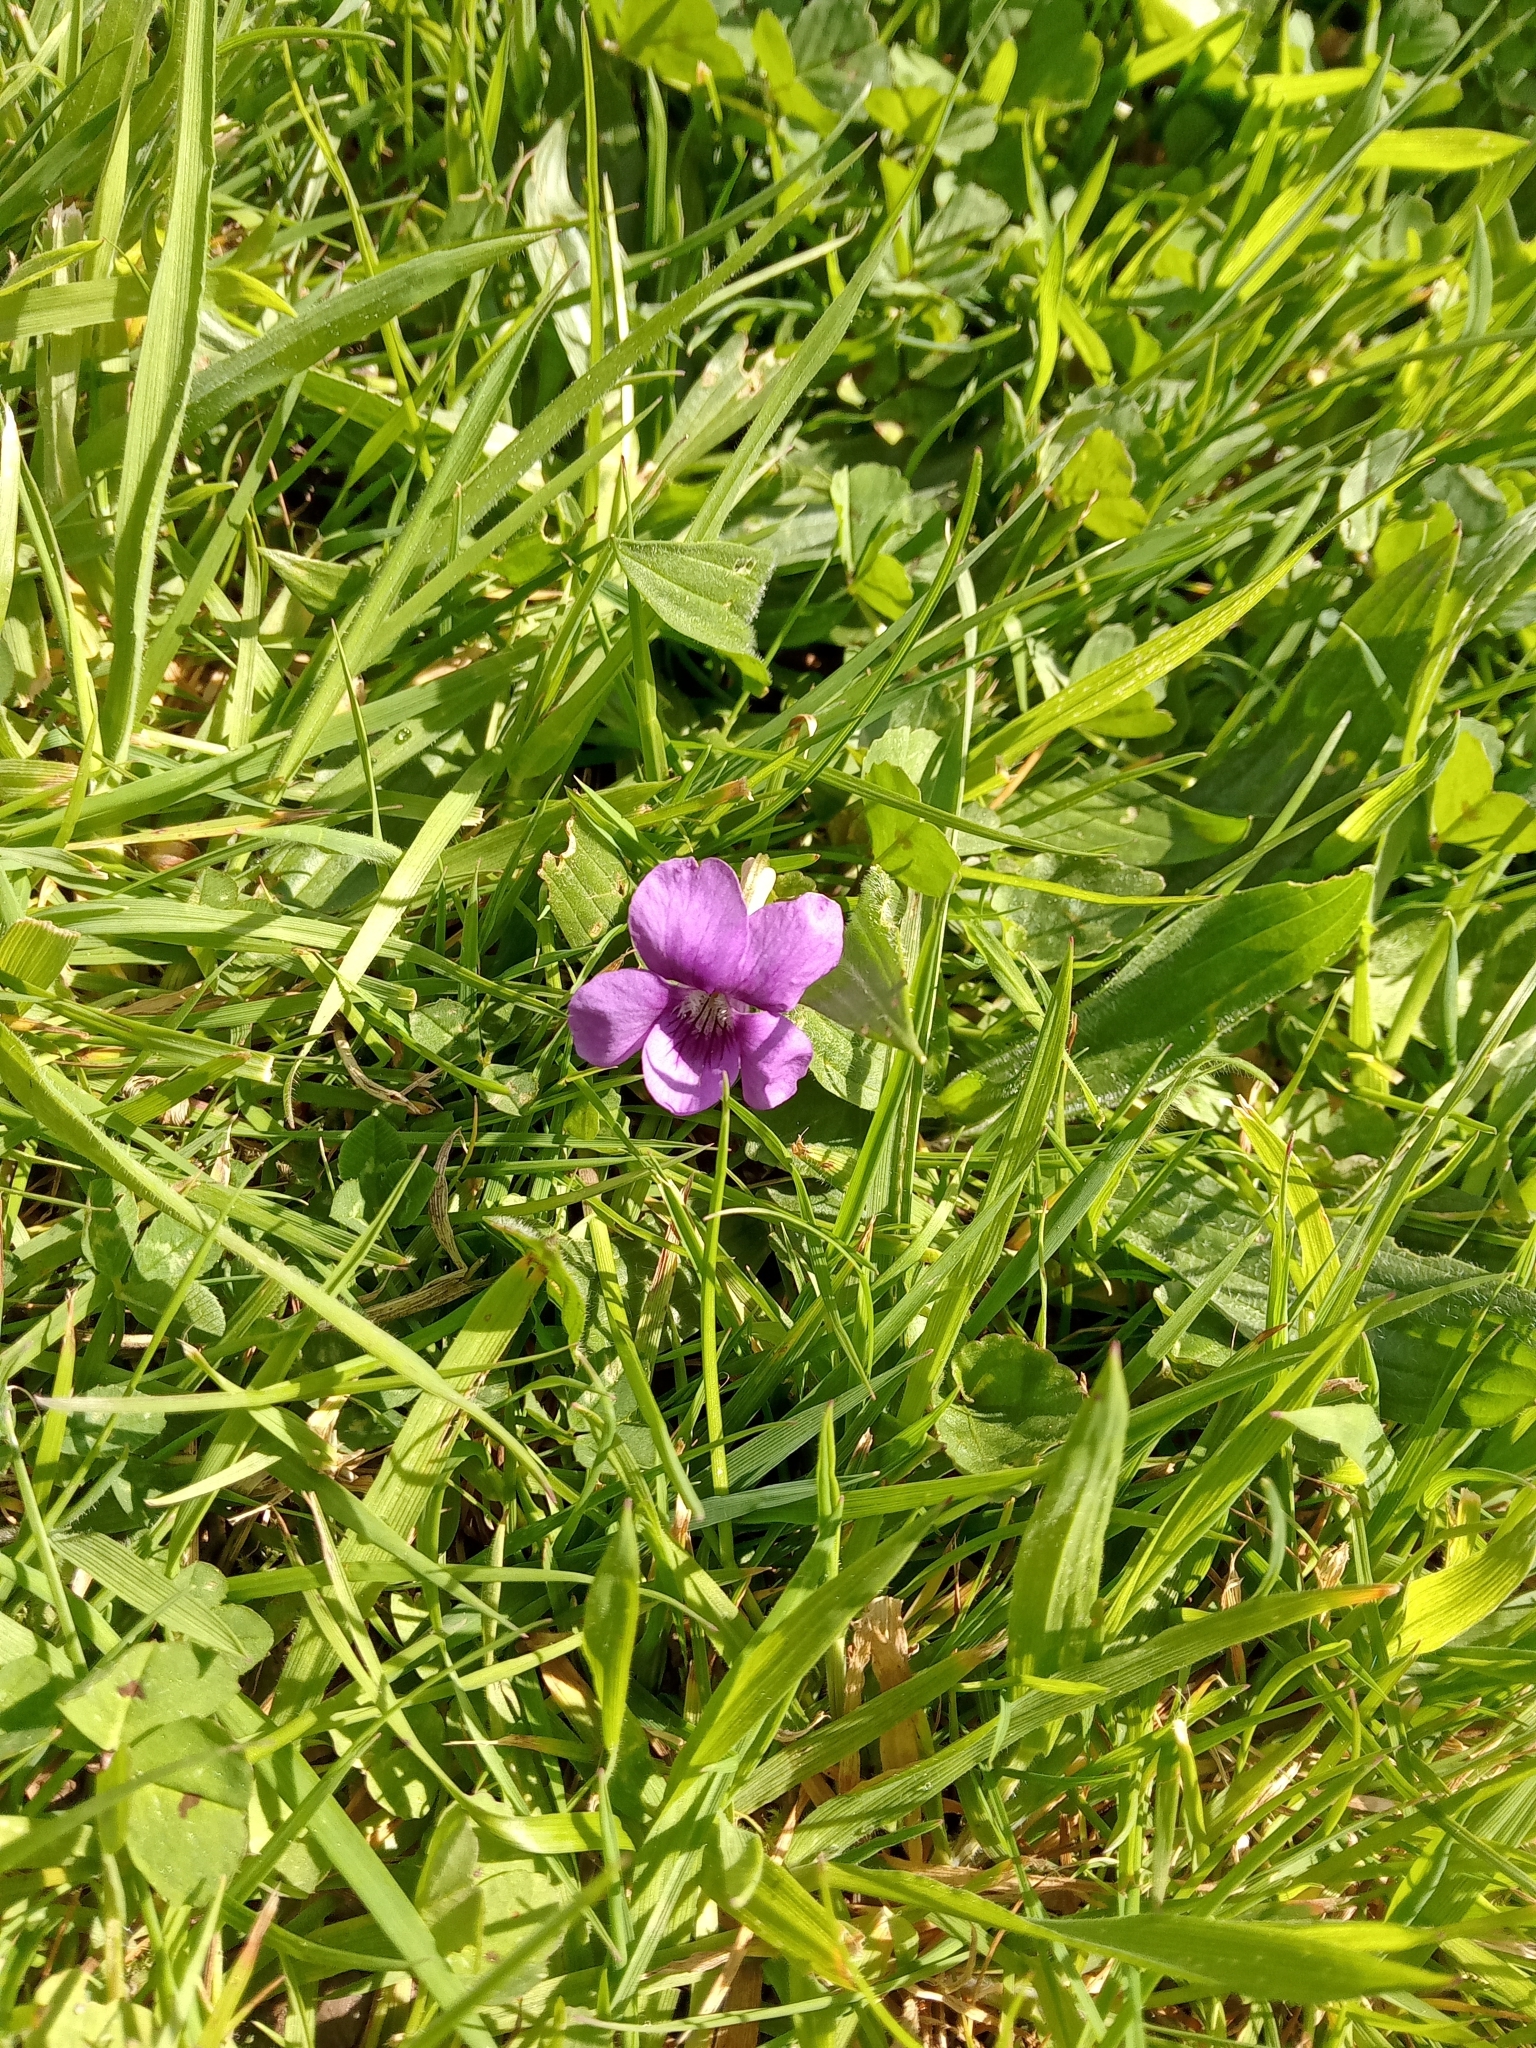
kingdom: Plantae
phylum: Tracheophyta
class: Magnoliopsida
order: Malpighiales
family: Violaceae
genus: Viola
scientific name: Viola riviniana
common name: Common dog-violet
